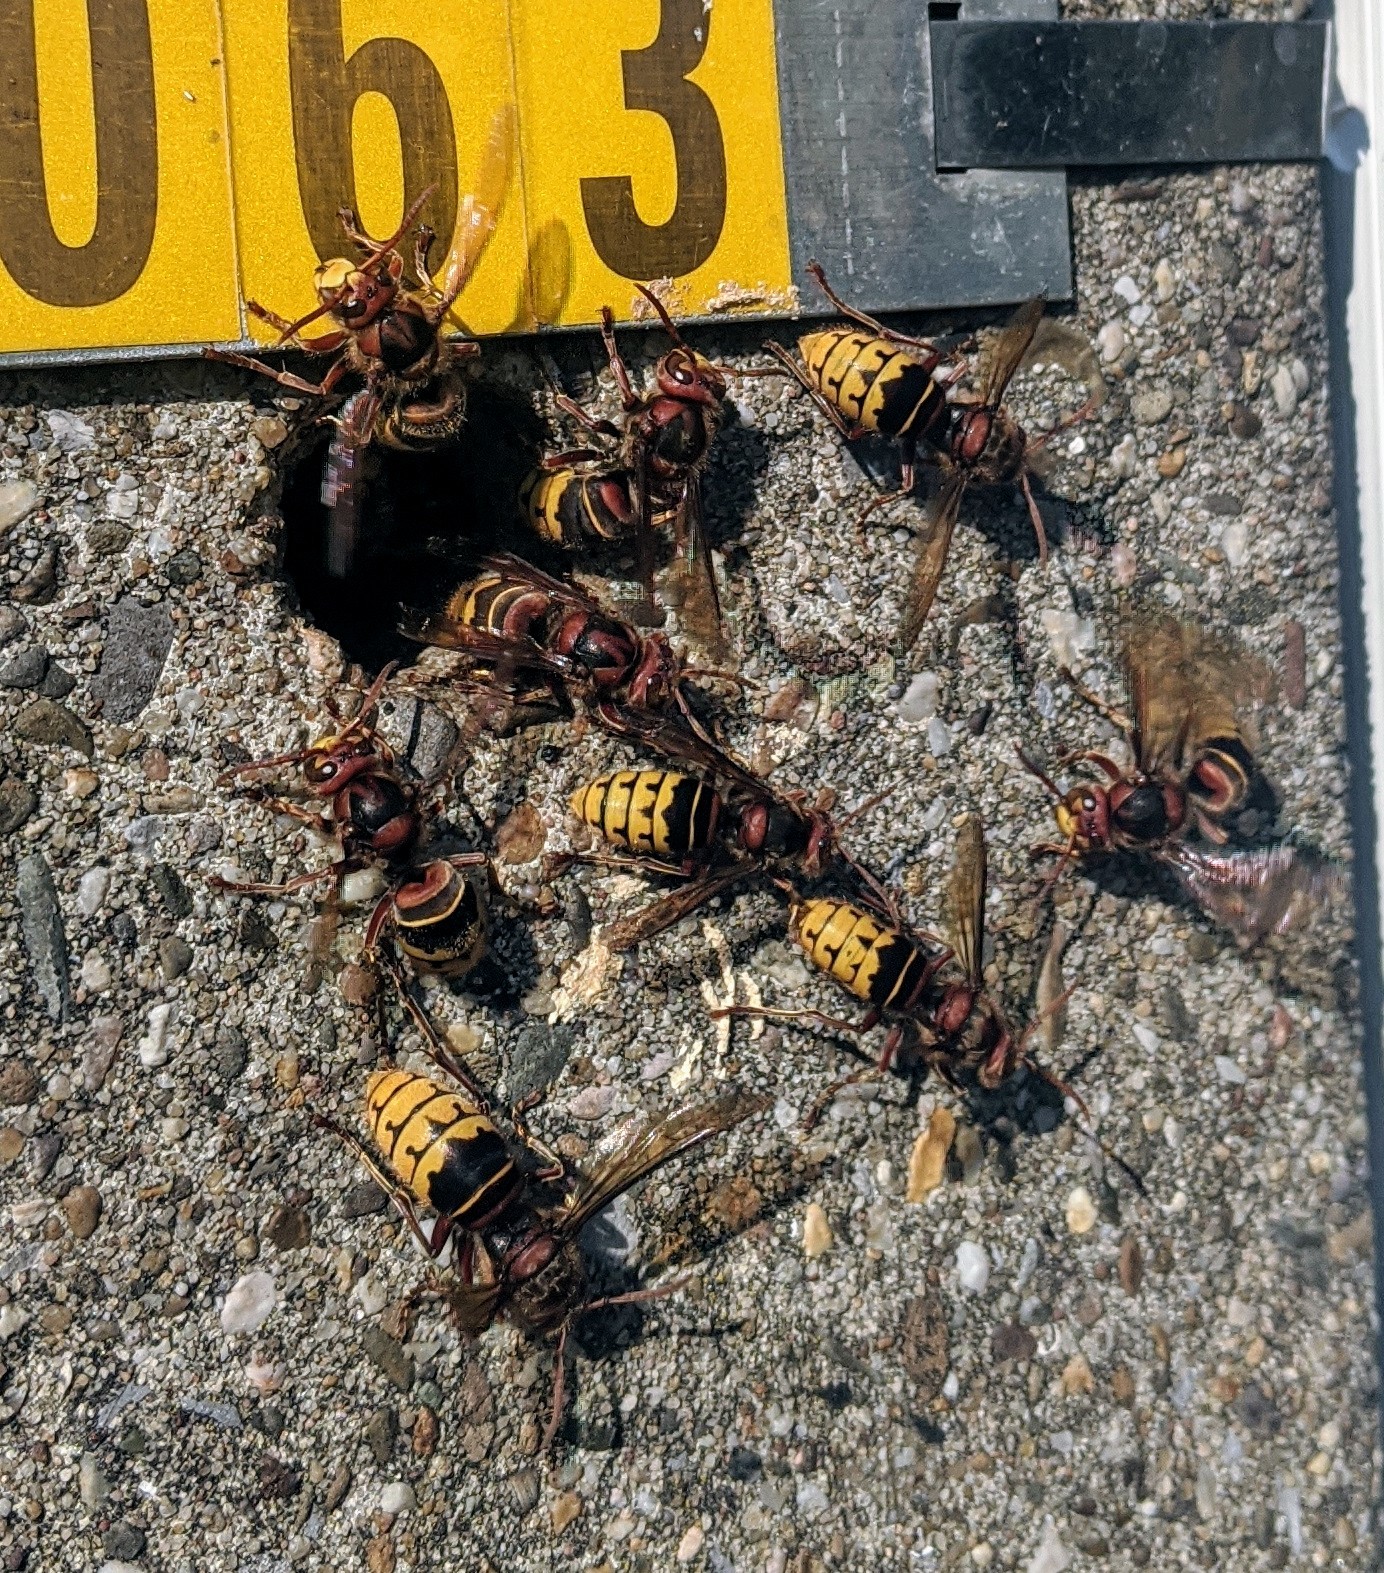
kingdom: Animalia
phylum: Arthropoda
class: Insecta
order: Hymenoptera
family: Vespidae
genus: Vespa
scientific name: Vespa crabro
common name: Hornet
